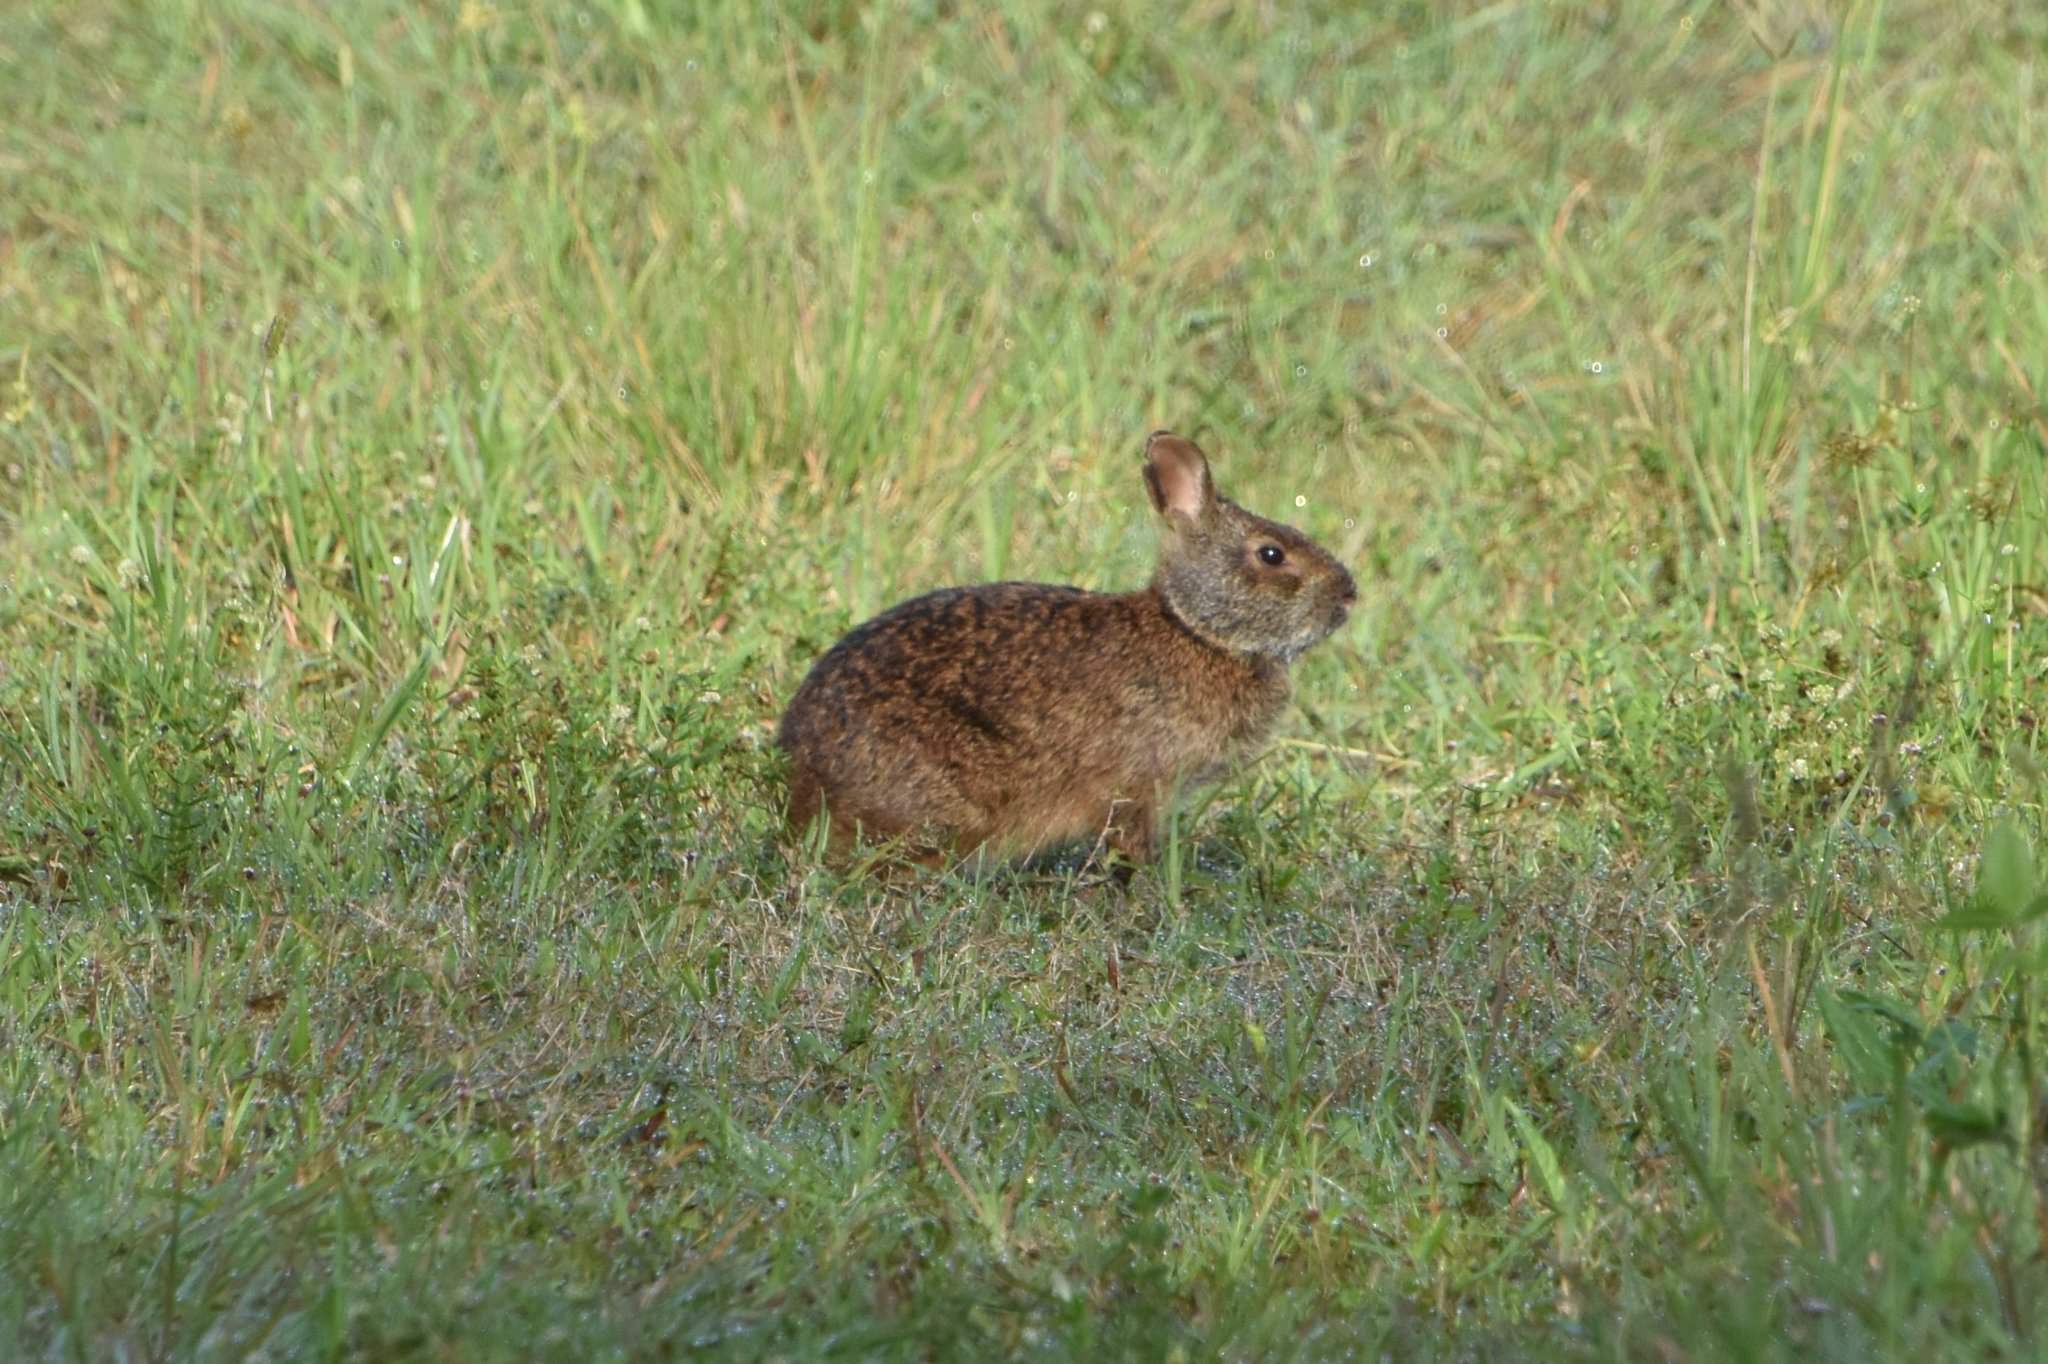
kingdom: Animalia
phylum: Chordata
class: Mammalia
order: Lagomorpha
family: Leporidae
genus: Sylvilagus
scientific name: Sylvilagus palustris
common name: Marsh rabbit
